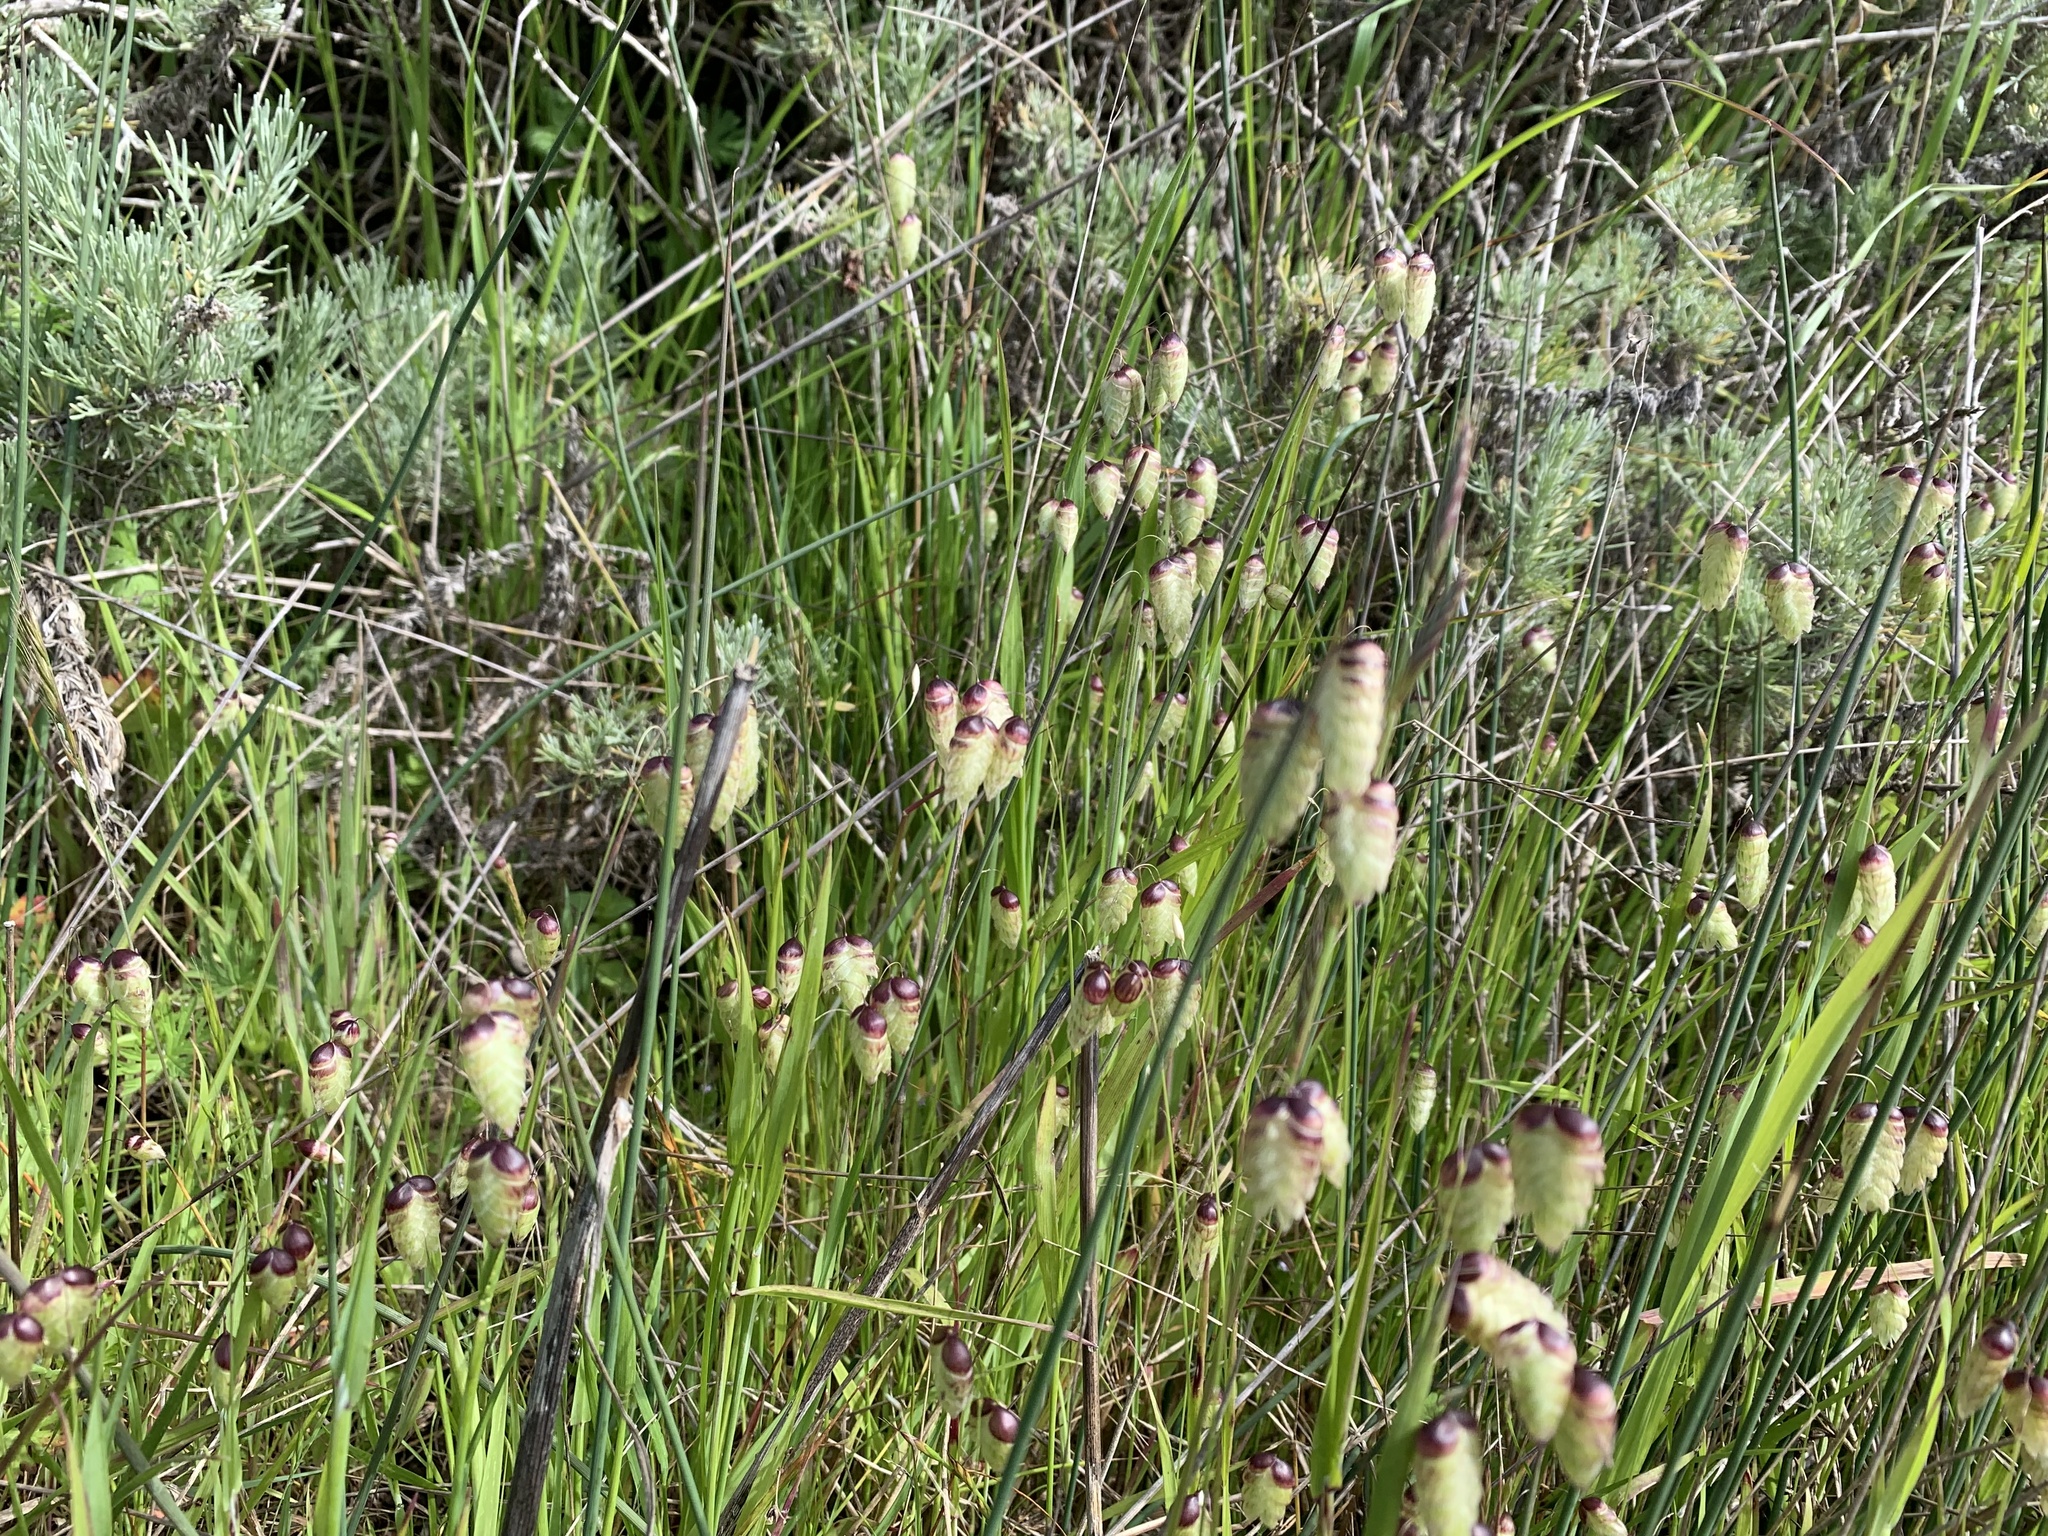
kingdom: Plantae
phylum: Tracheophyta
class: Liliopsida
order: Poales
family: Poaceae
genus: Briza
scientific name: Briza maxima
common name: Big quakinggrass
